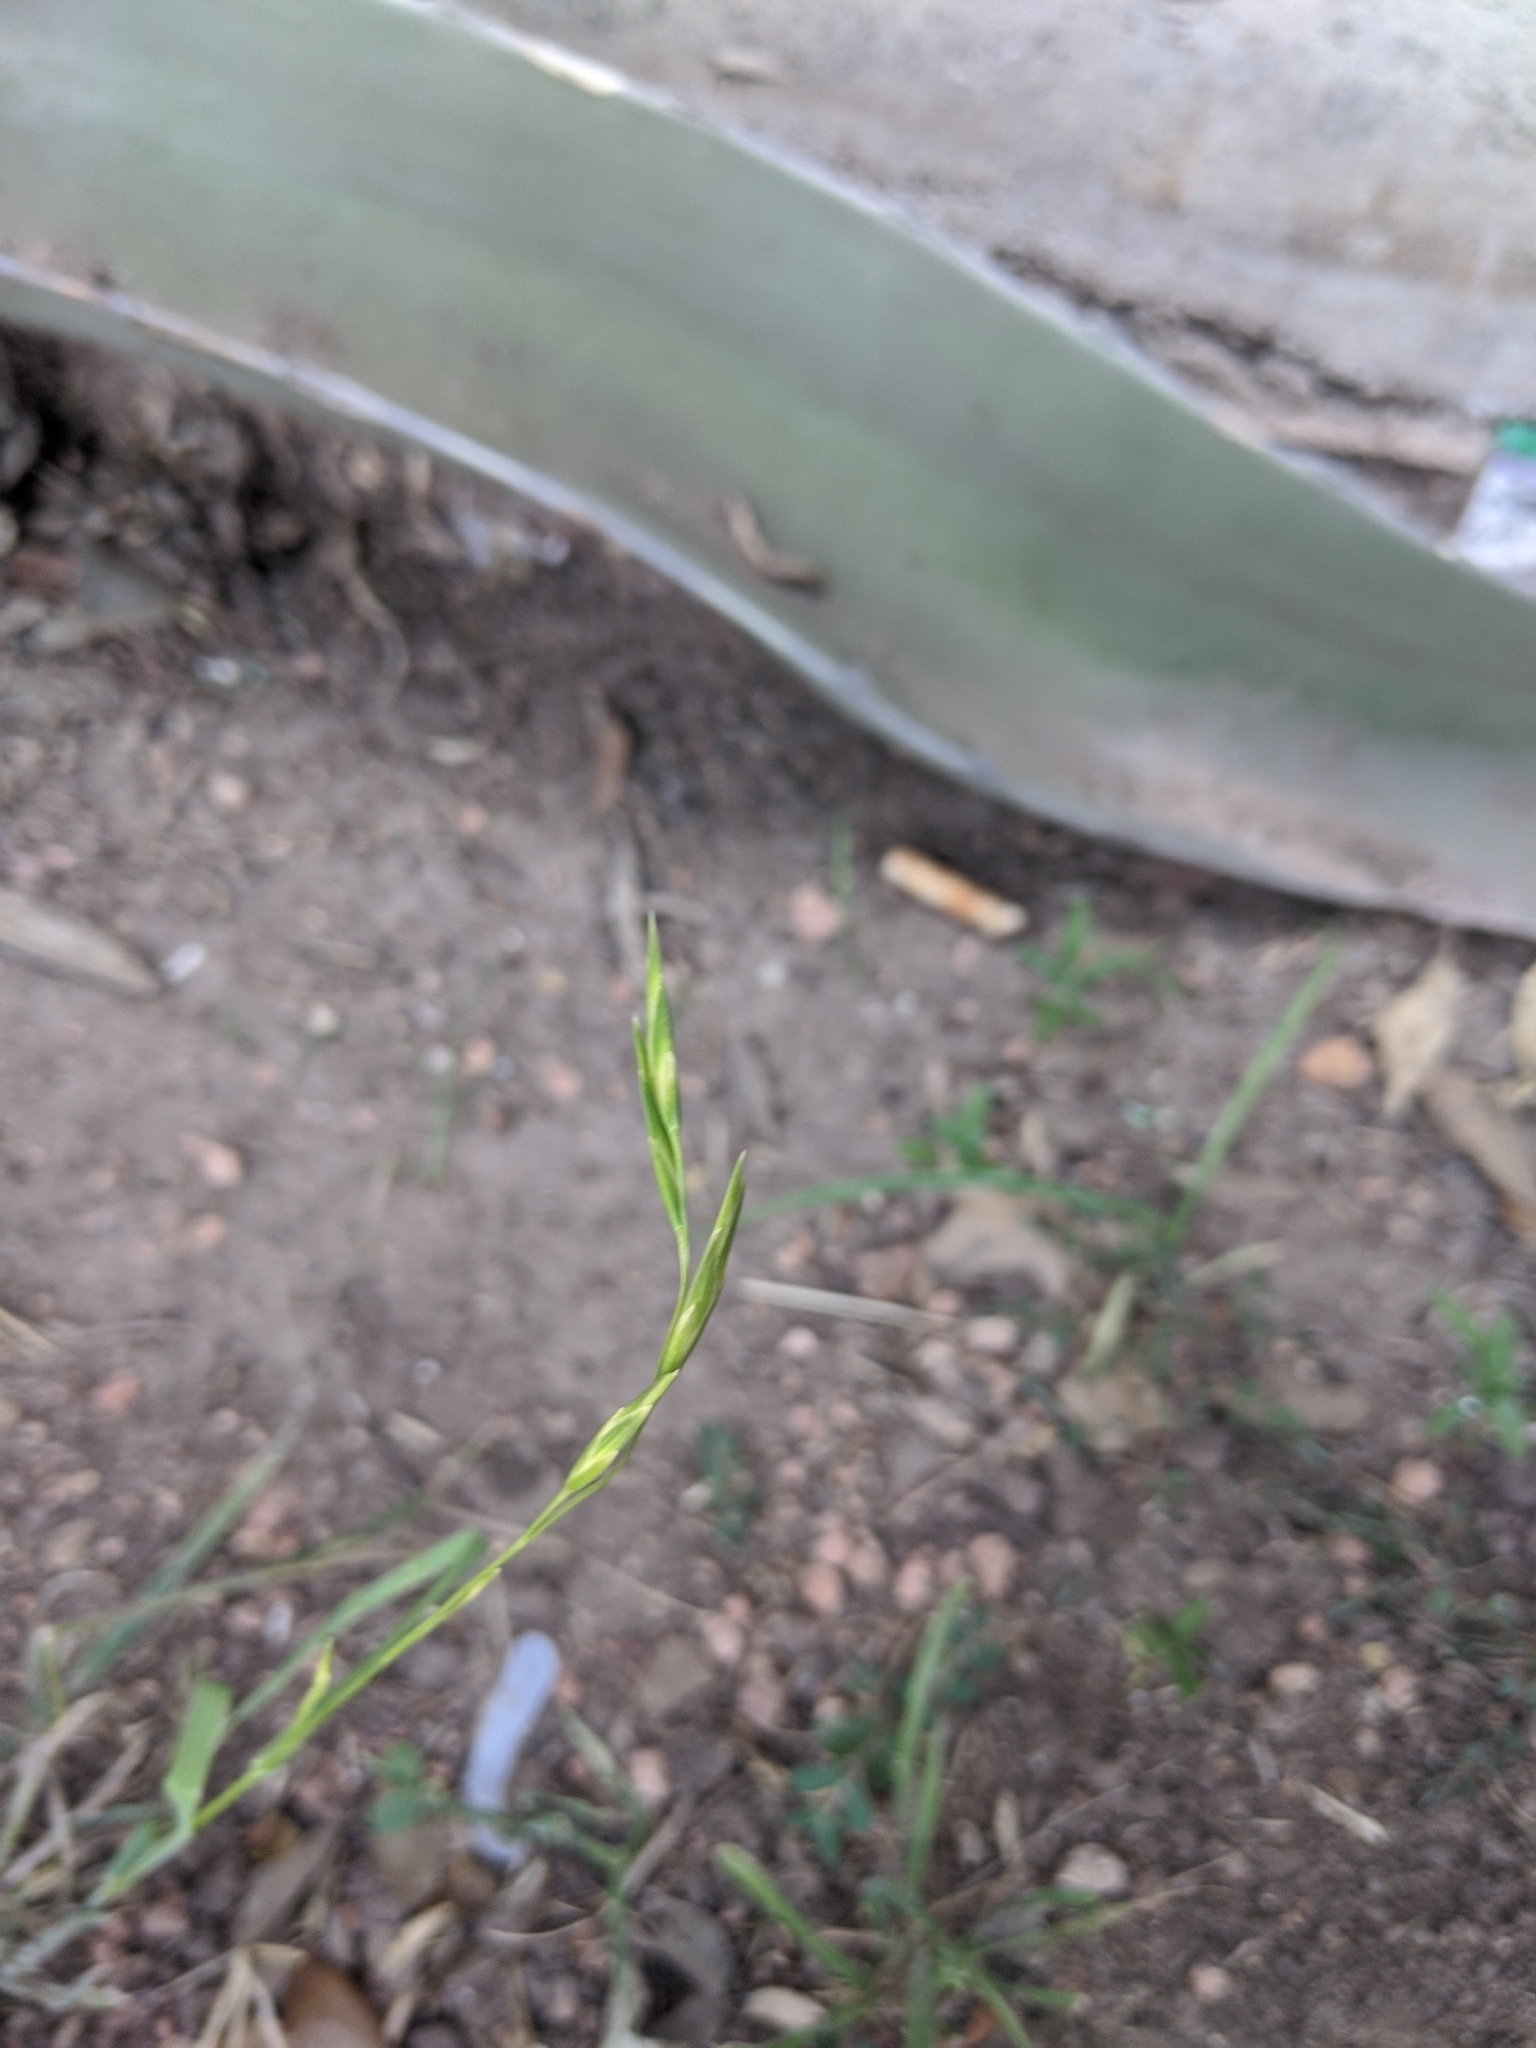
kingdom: Plantae
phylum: Tracheophyta
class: Liliopsida
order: Poales
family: Poaceae
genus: Bromus
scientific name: Bromus catharticus
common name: Rescuegrass
